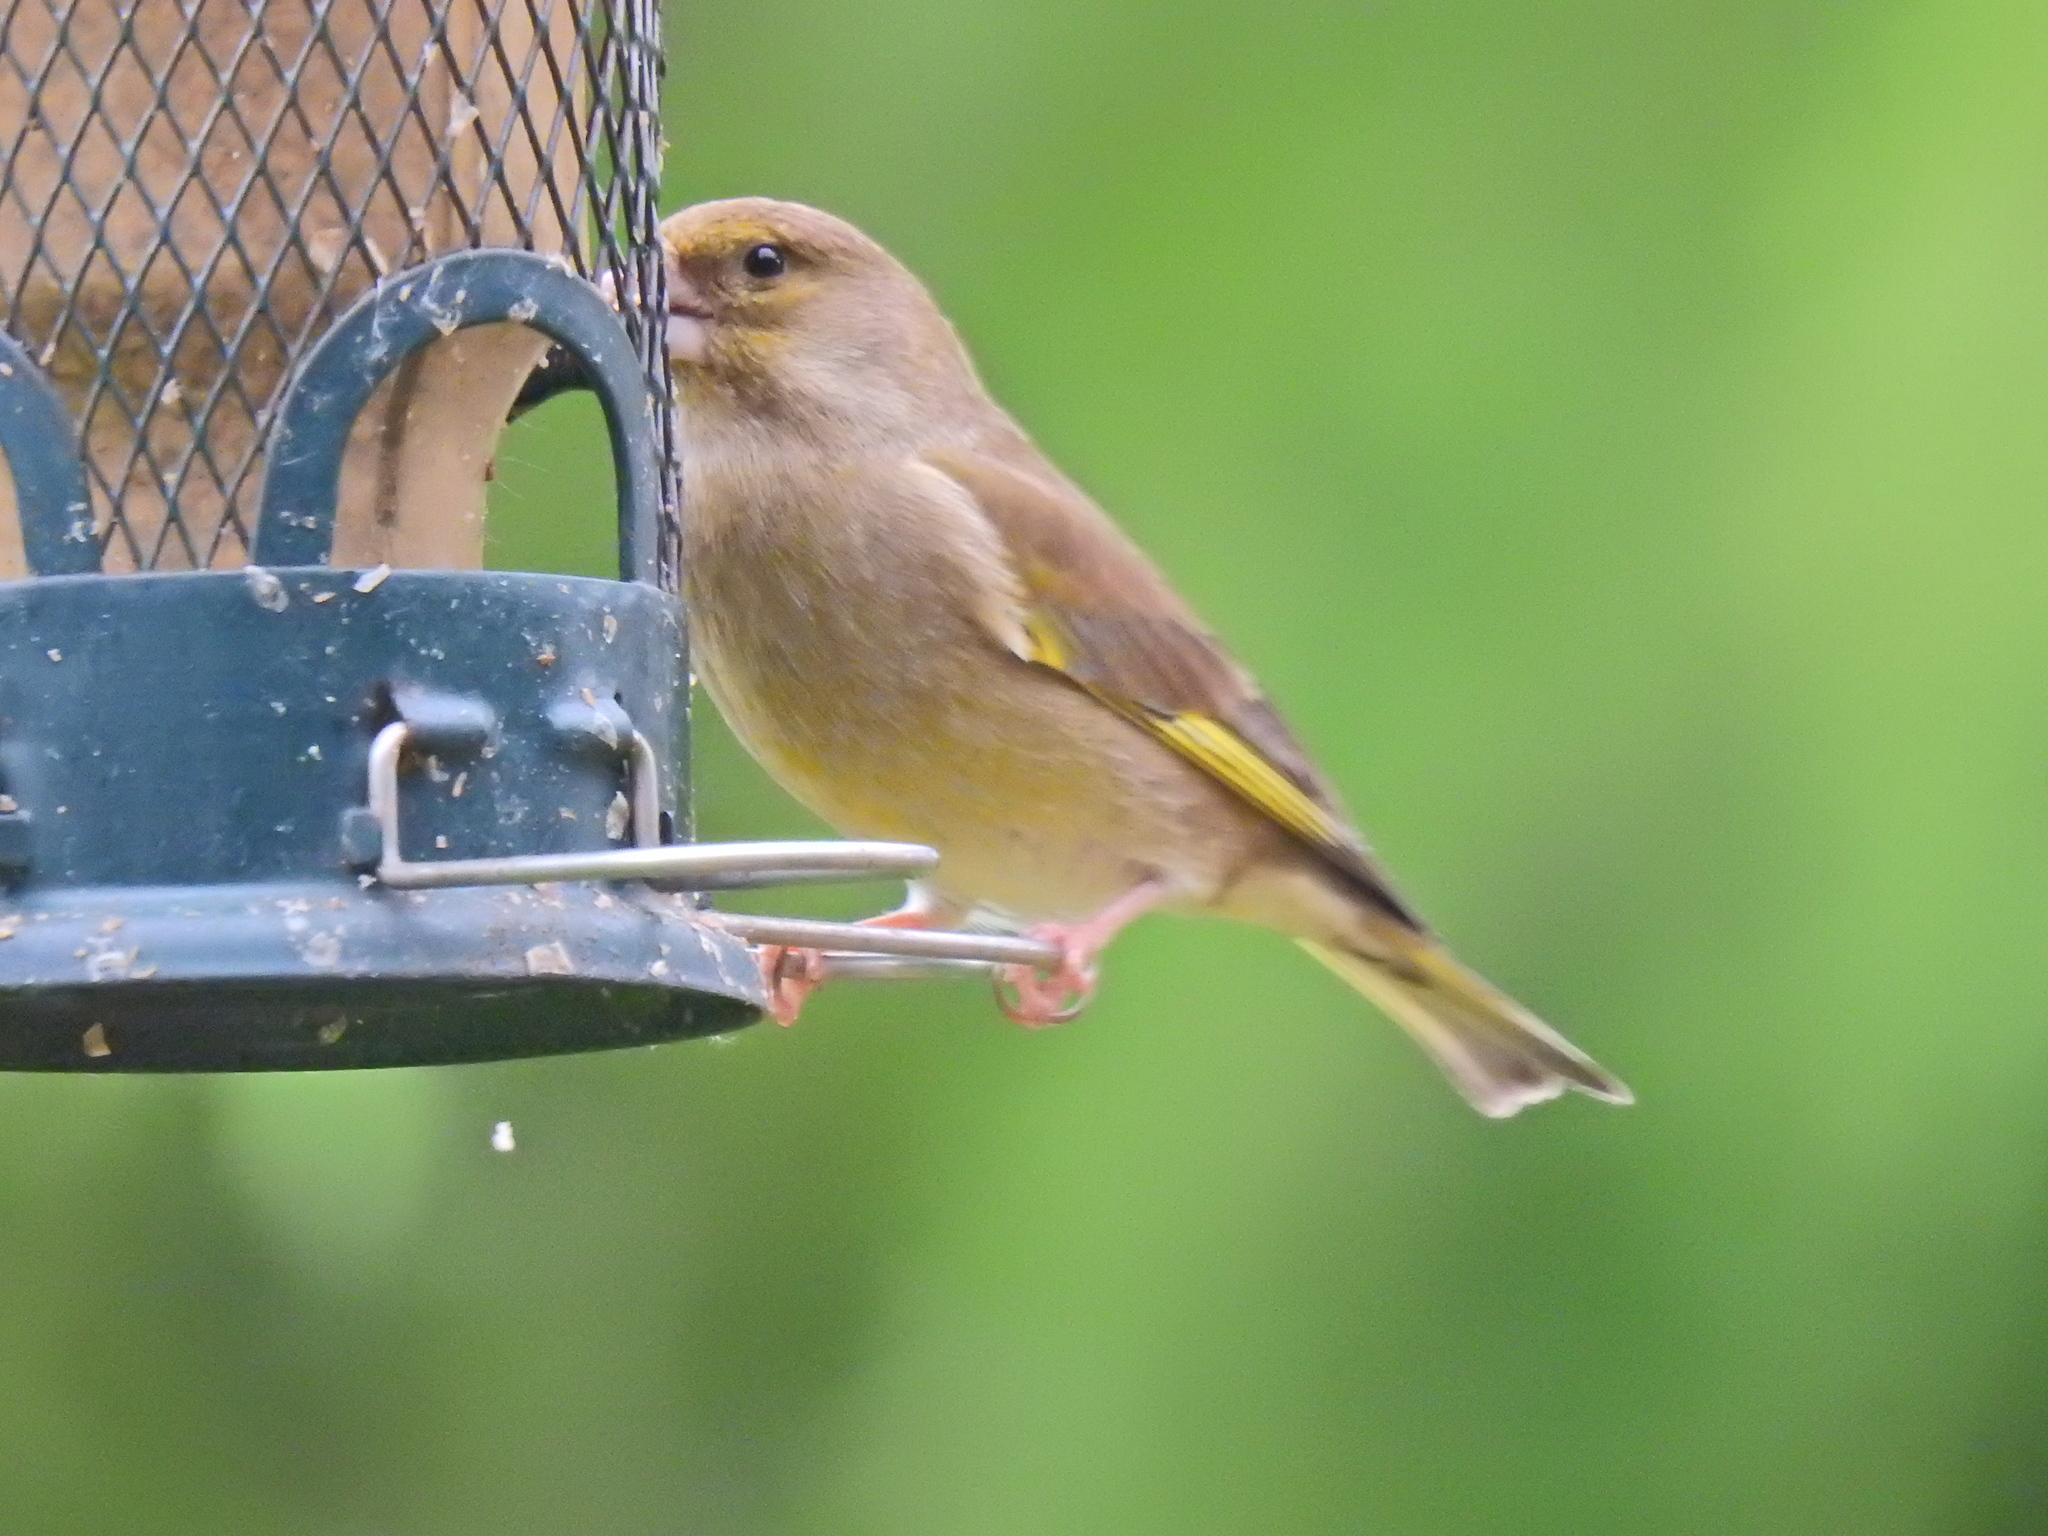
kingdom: Plantae
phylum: Tracheophyta
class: Liliopsida
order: Poales
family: Poaceae
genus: Chloris
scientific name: Chloris chloris
